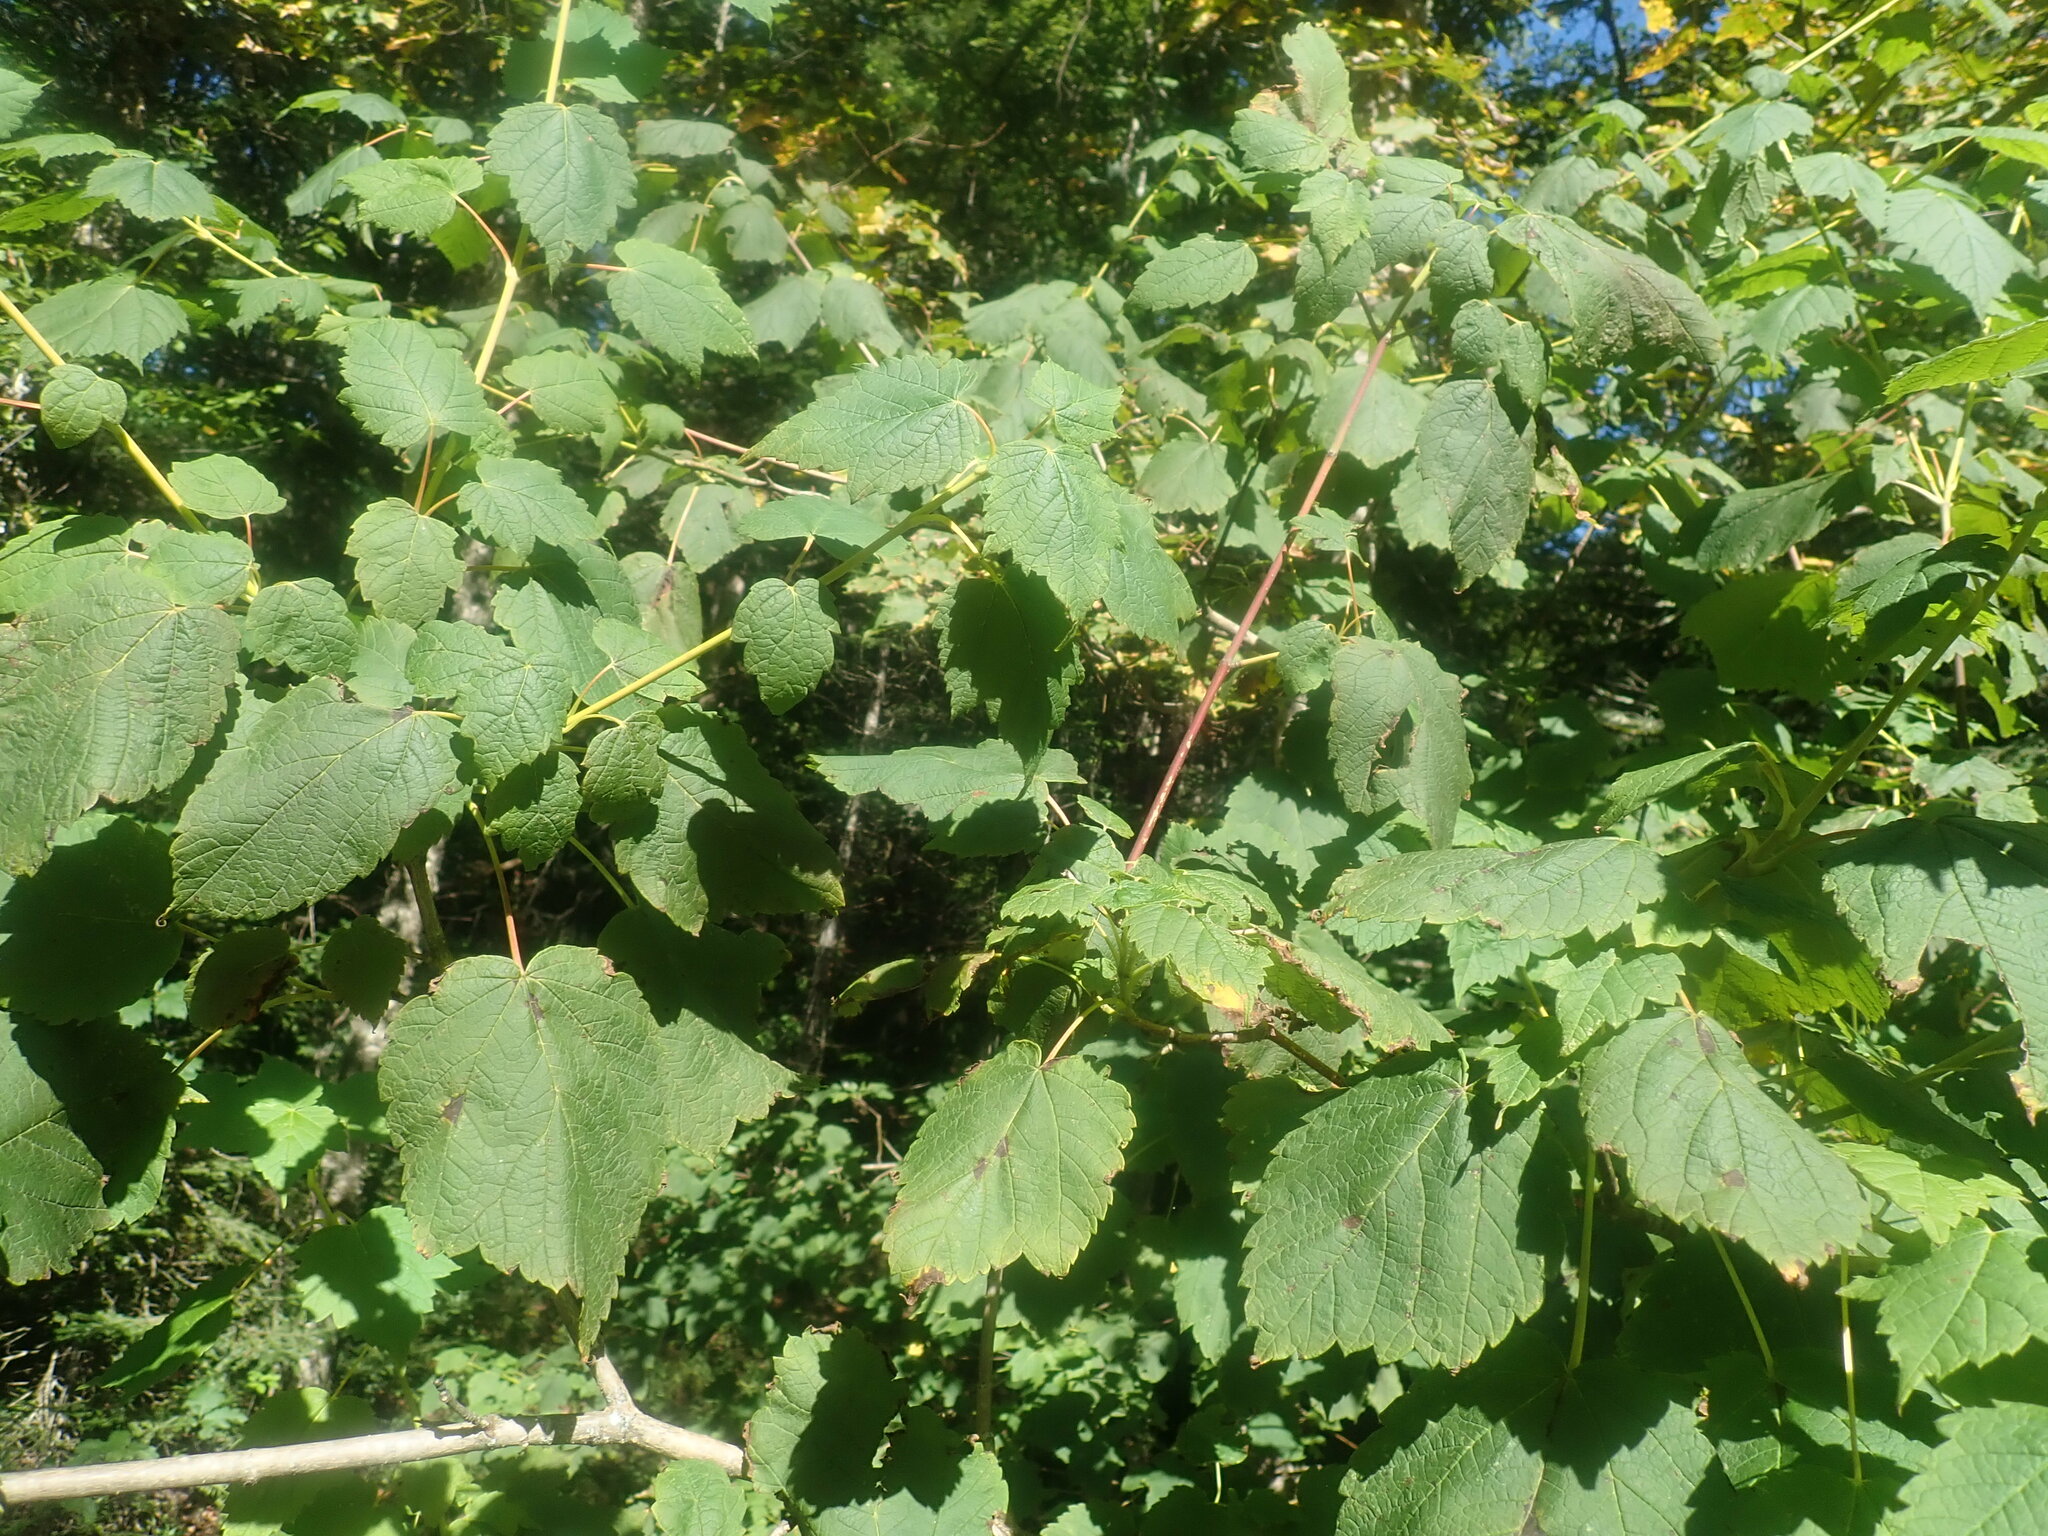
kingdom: Plantae
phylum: Tracheophyta
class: Magnoliopsida
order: Sapindales
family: Sapindaceae
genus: Acer
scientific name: Acer spicatum
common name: Mountain maple
